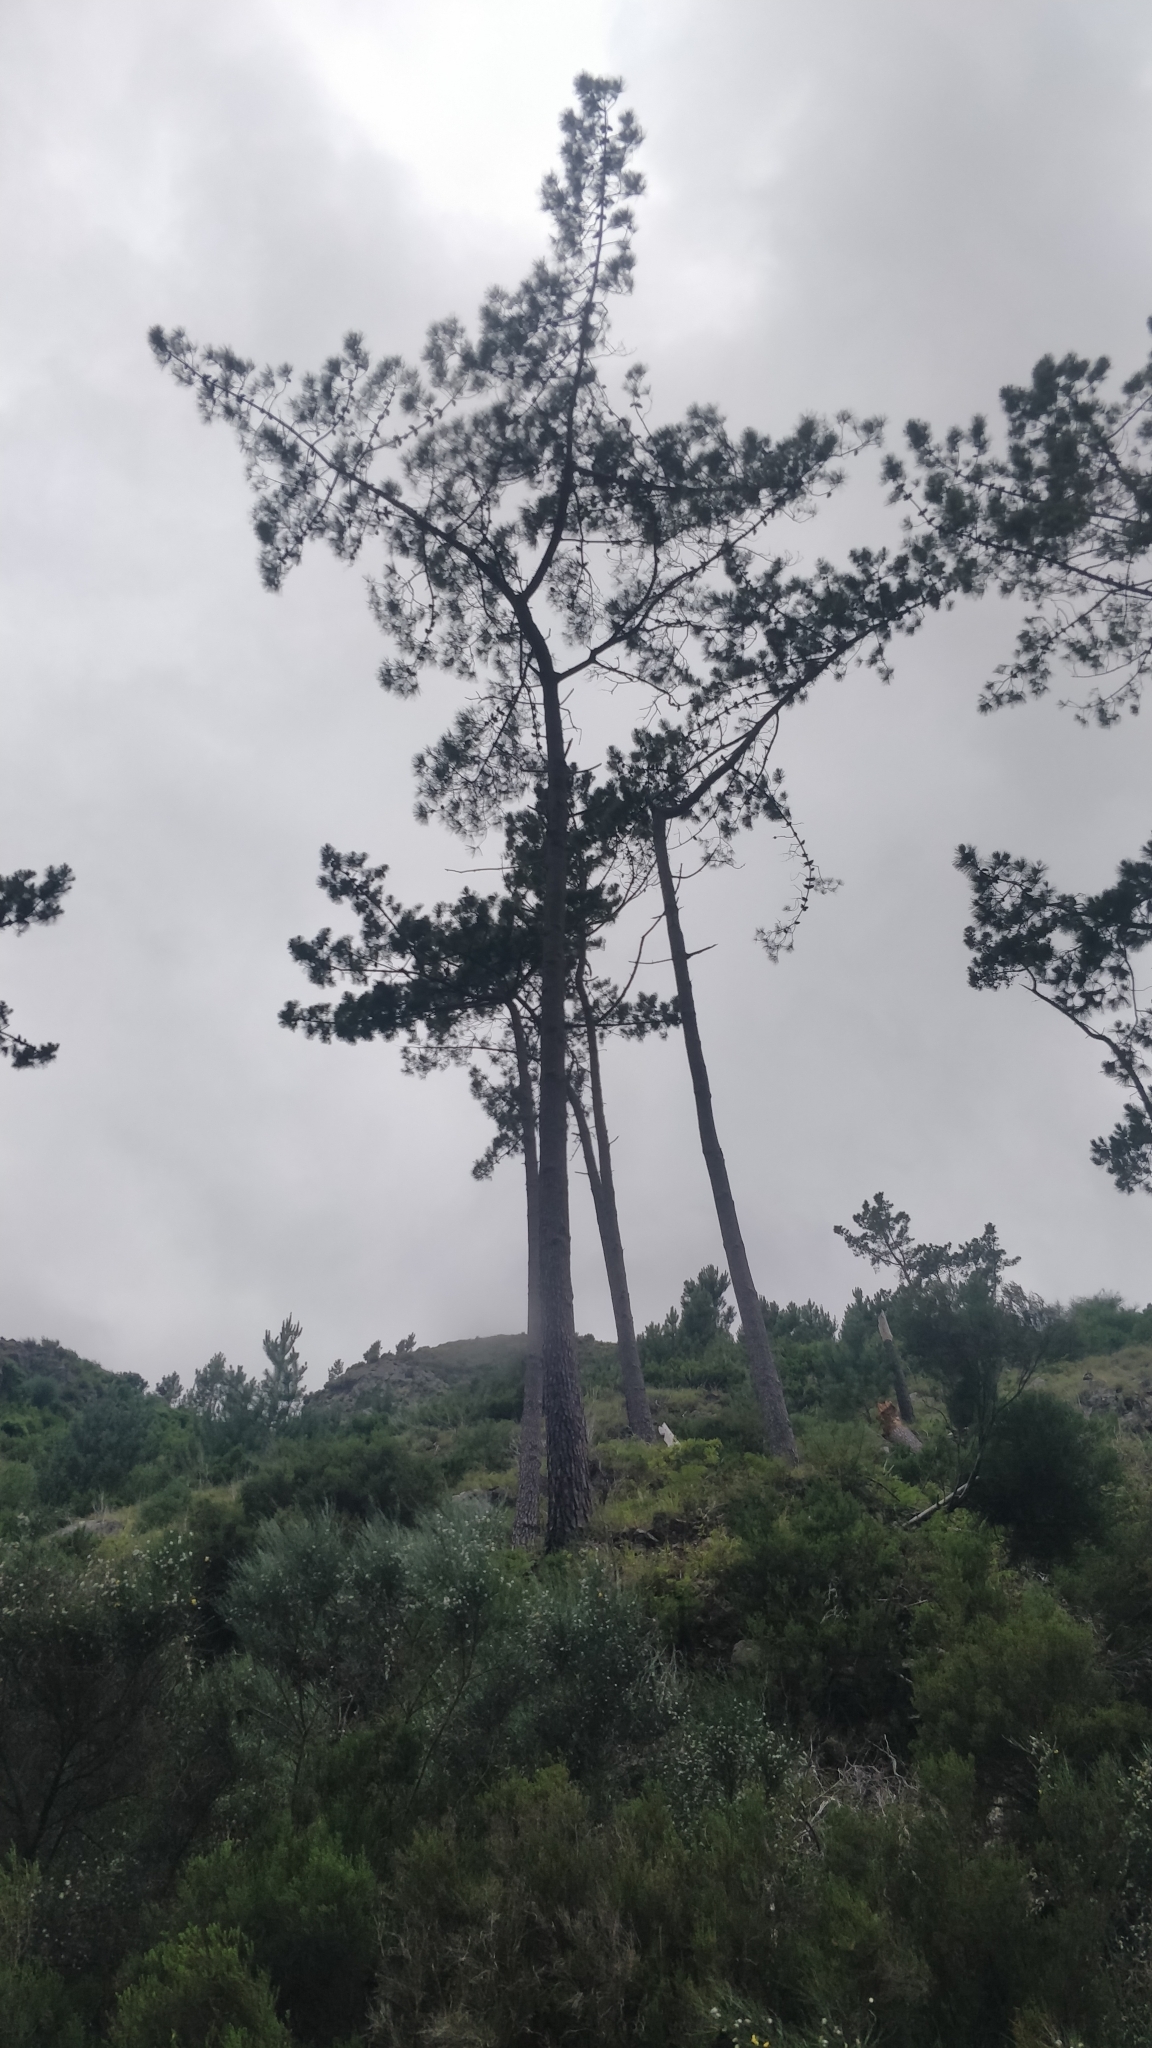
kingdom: Plantae
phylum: Tracheophyta
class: Pinopsida
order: Pinales
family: Pinaceae
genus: Pinus
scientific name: Pinus pinaster
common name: Maritime pine
